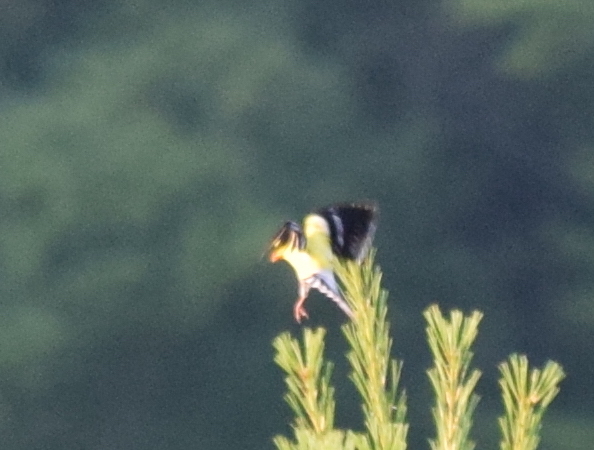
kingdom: Animalia
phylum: Chordata
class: Aves
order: Passeriformes
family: Fringillidae
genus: Spinus
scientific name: Spinus tristis
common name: American goldfinch
